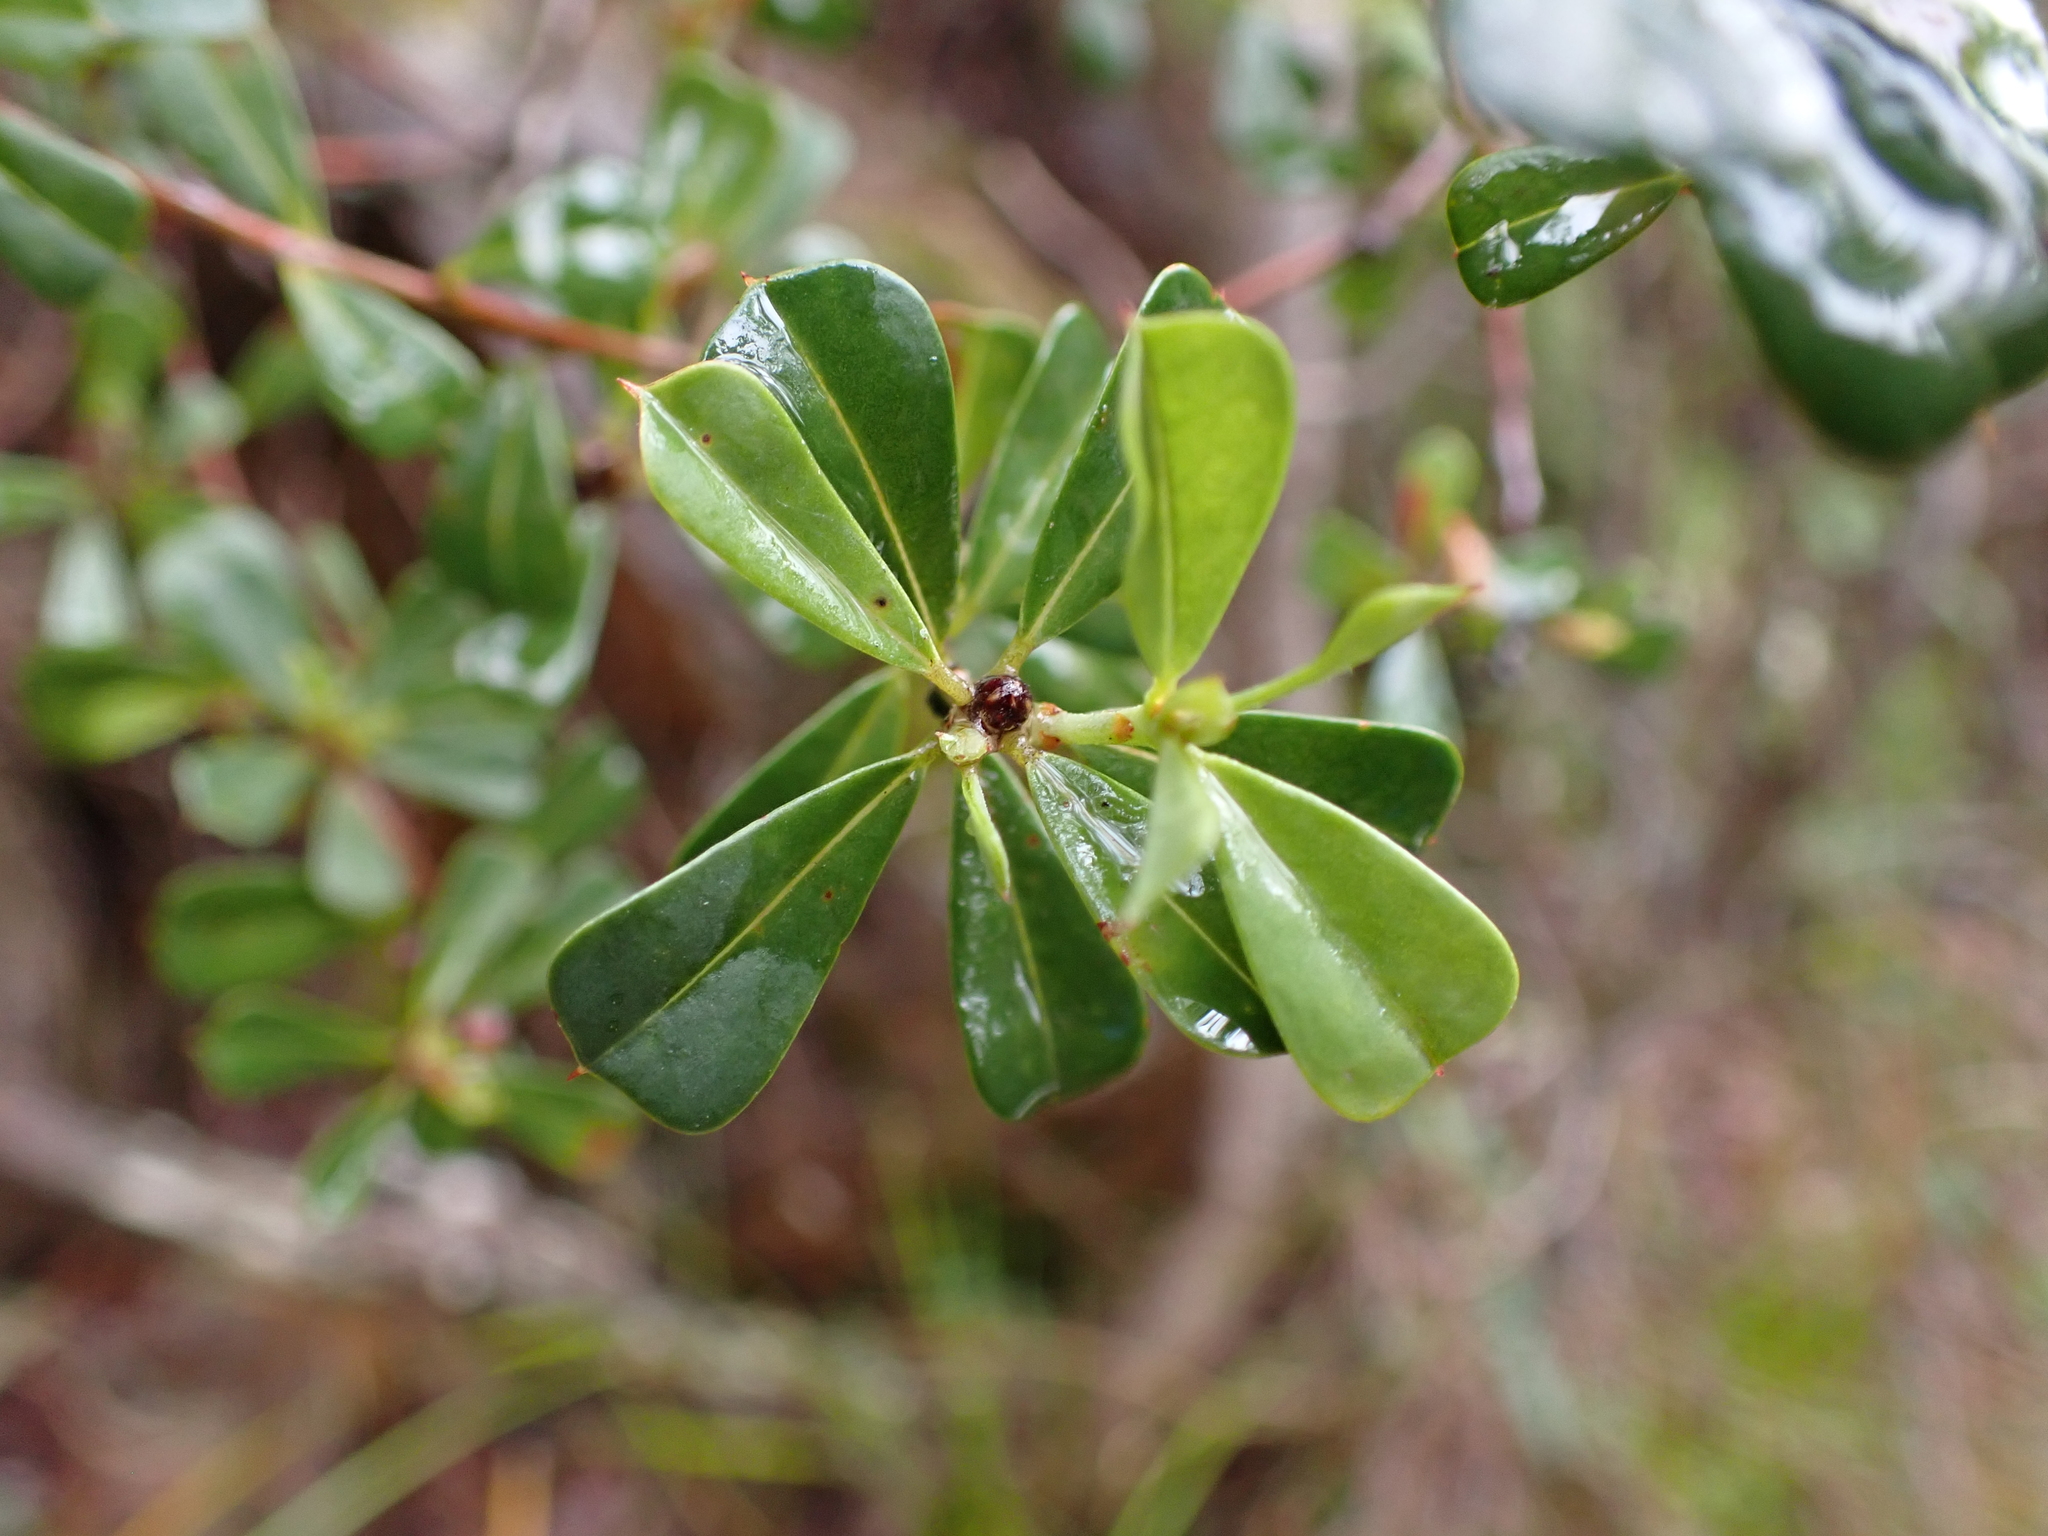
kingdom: Plantae
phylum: Tracheophyta
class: Magnoliopsida
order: Fabales
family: Fabaceae
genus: Pultenaea
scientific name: Pultenaea daphnoides
